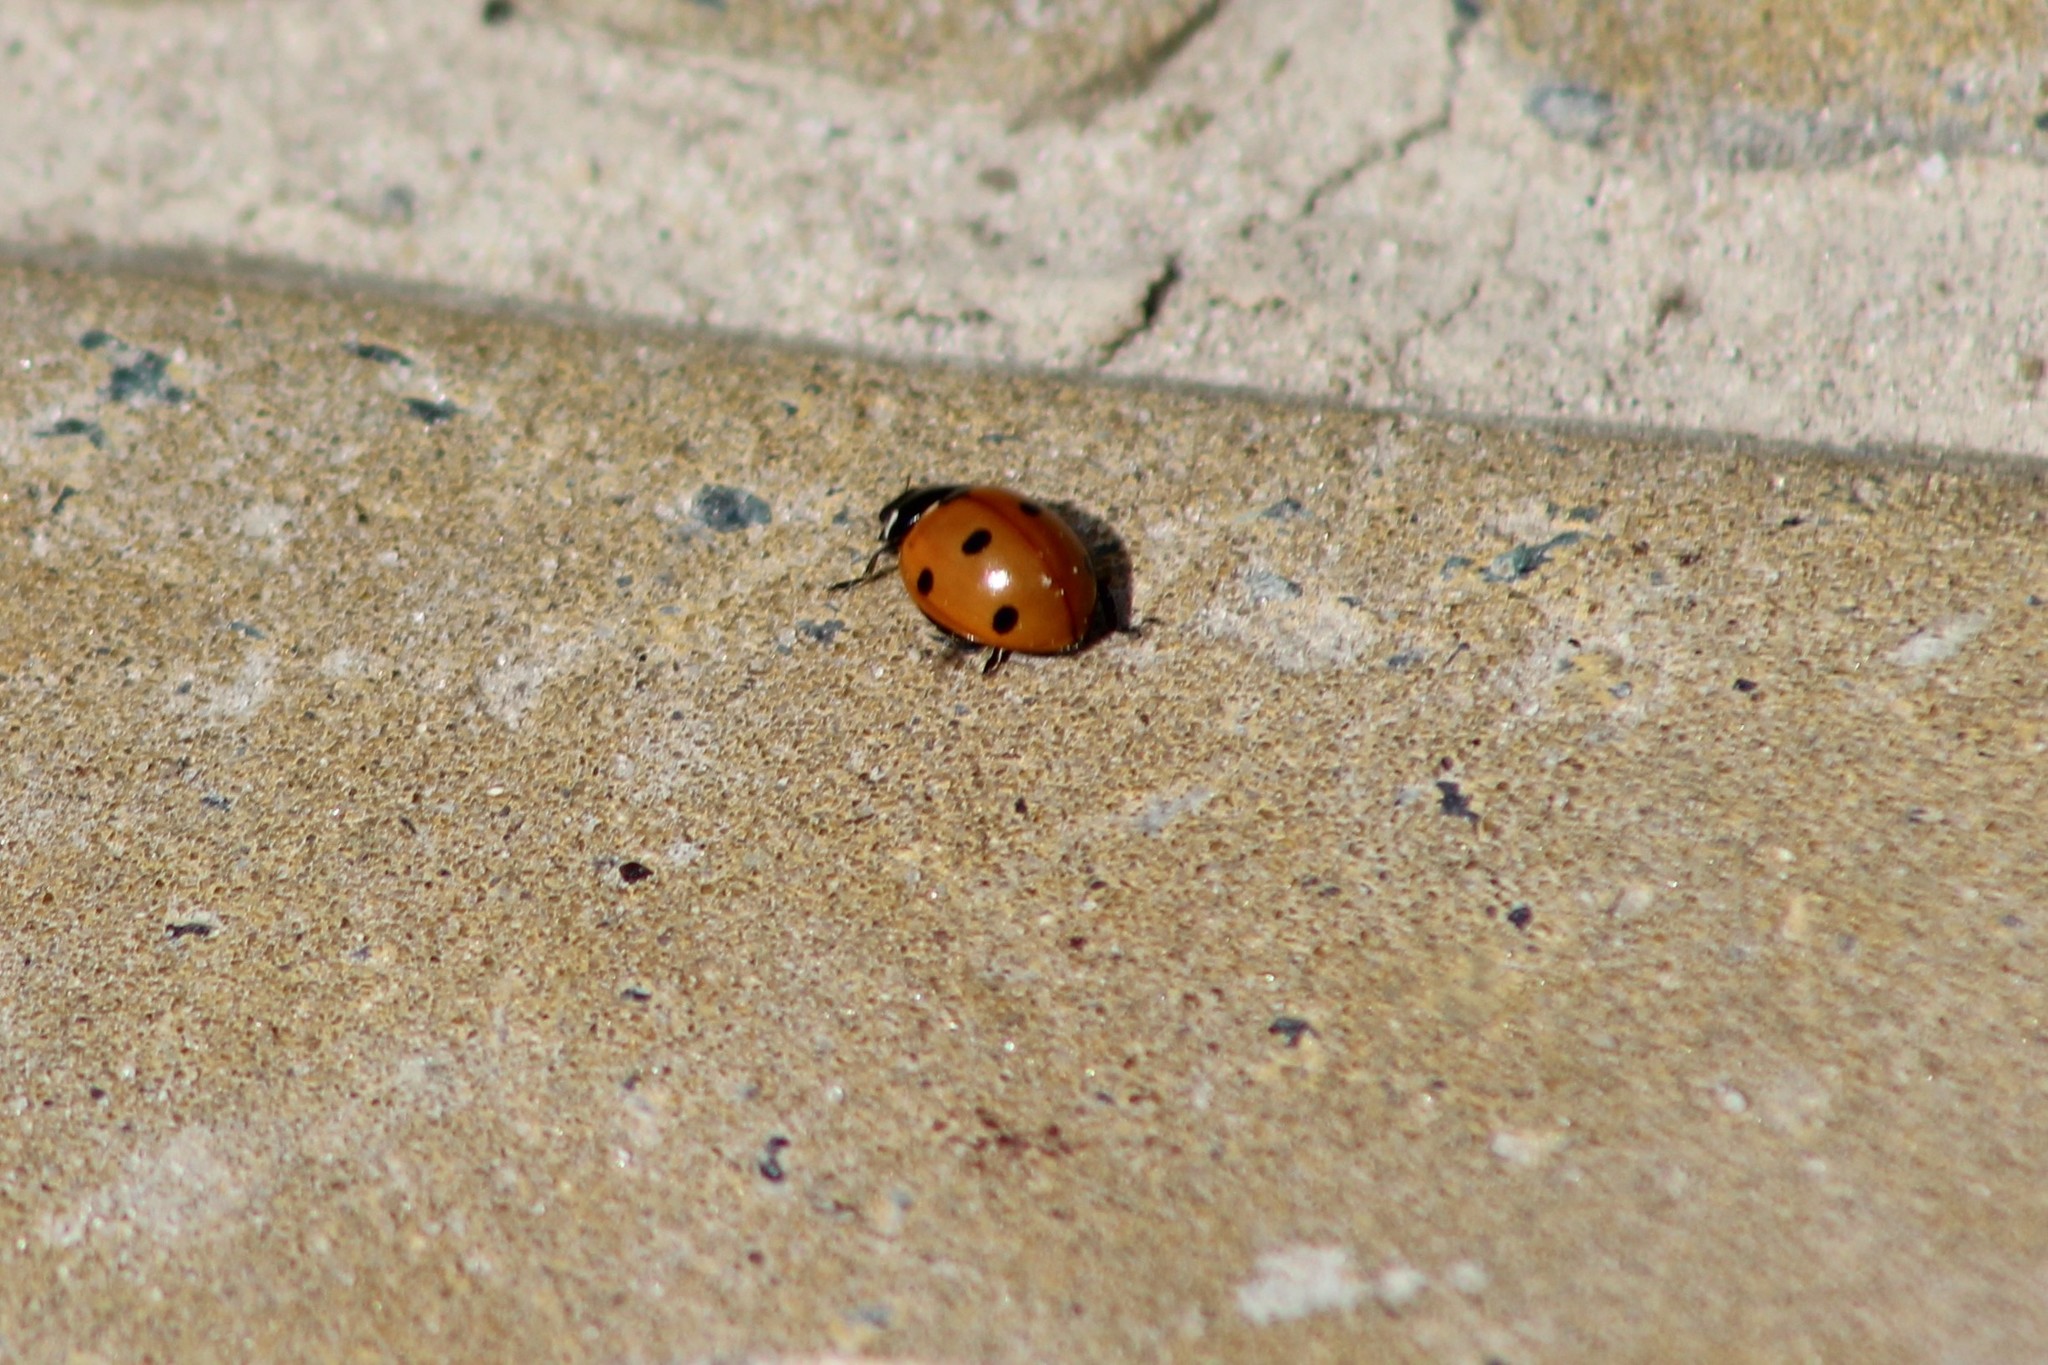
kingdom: Animalia
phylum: Arthropoda
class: Insecta
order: Coleoptera
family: Coccinellidae
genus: Coccinella
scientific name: Coccinella septempunctata
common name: Sevenspotted lady beetle
